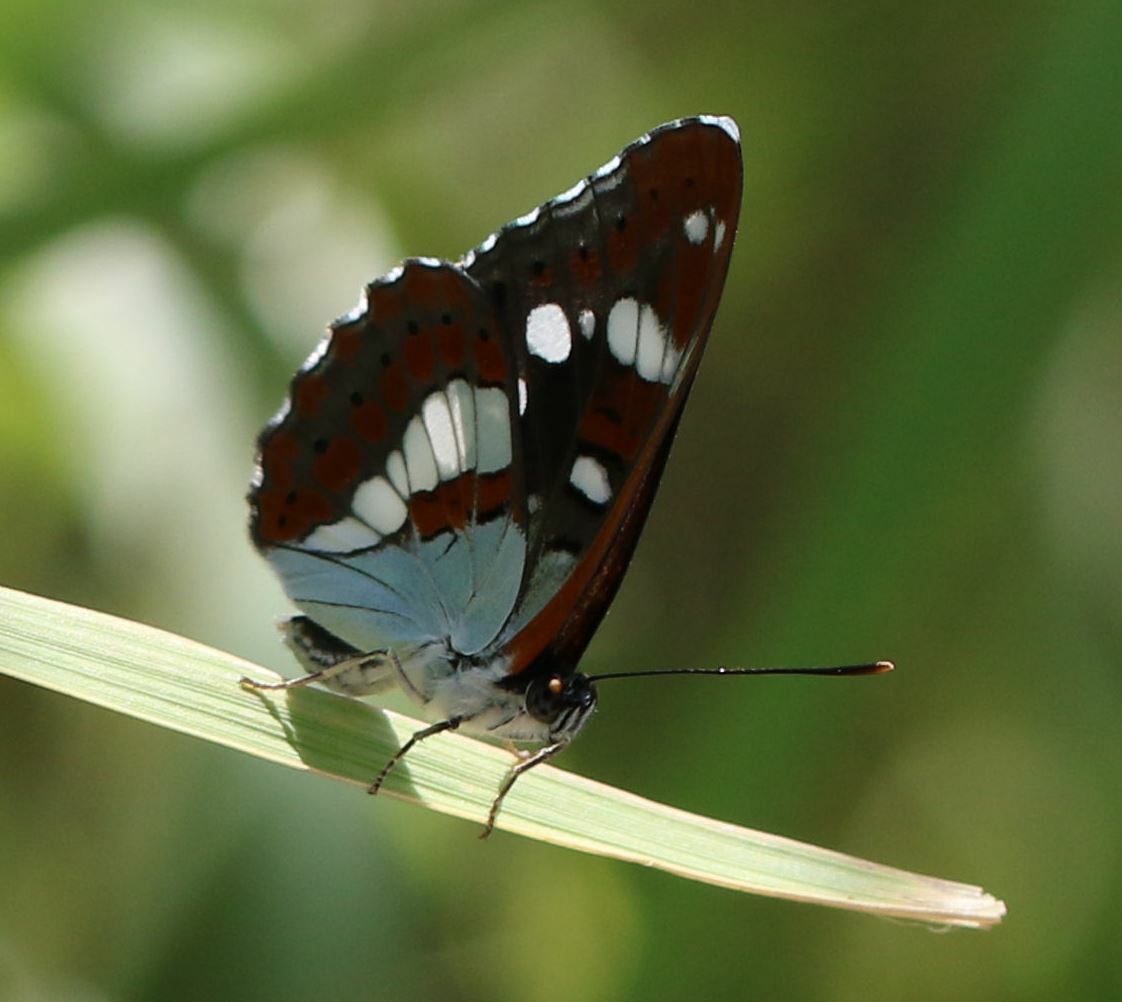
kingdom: Animalia
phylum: Arthropoda
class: Insecta
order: Lepidoptera
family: Nymphalidae
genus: Limenitis
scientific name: Limenitis reducta
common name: Southern white admiral
